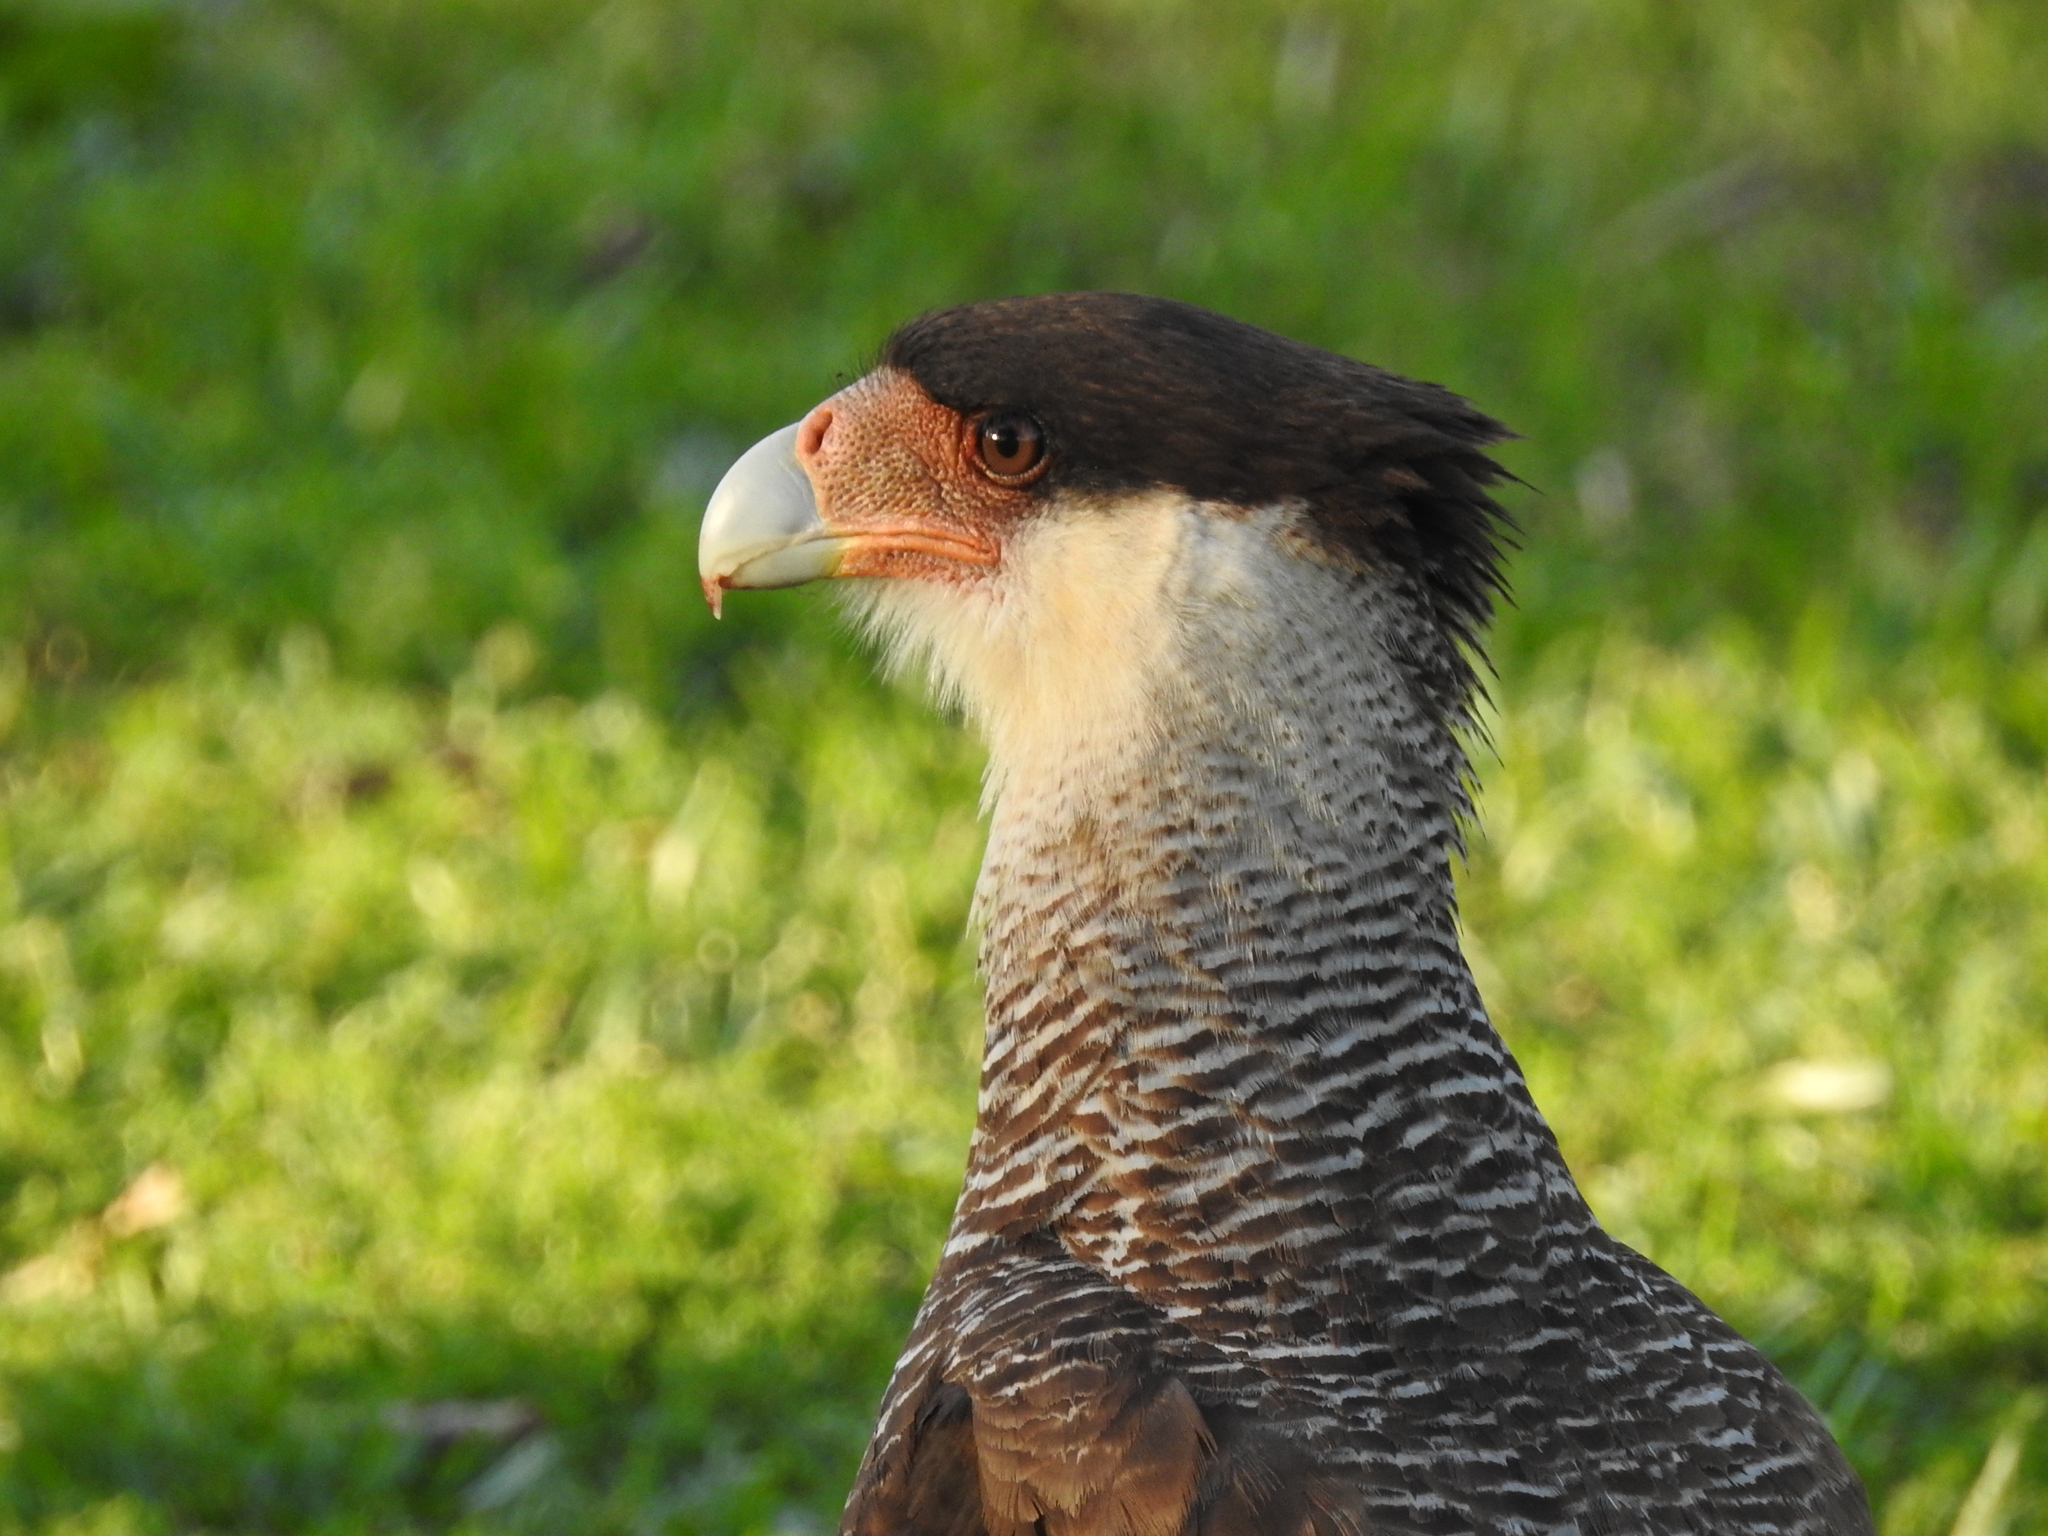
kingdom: Animalia
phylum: Chordata
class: Aves
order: Falconiformes
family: Falconidae
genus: Caracara
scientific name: Caracara plancus
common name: Southern caracara
